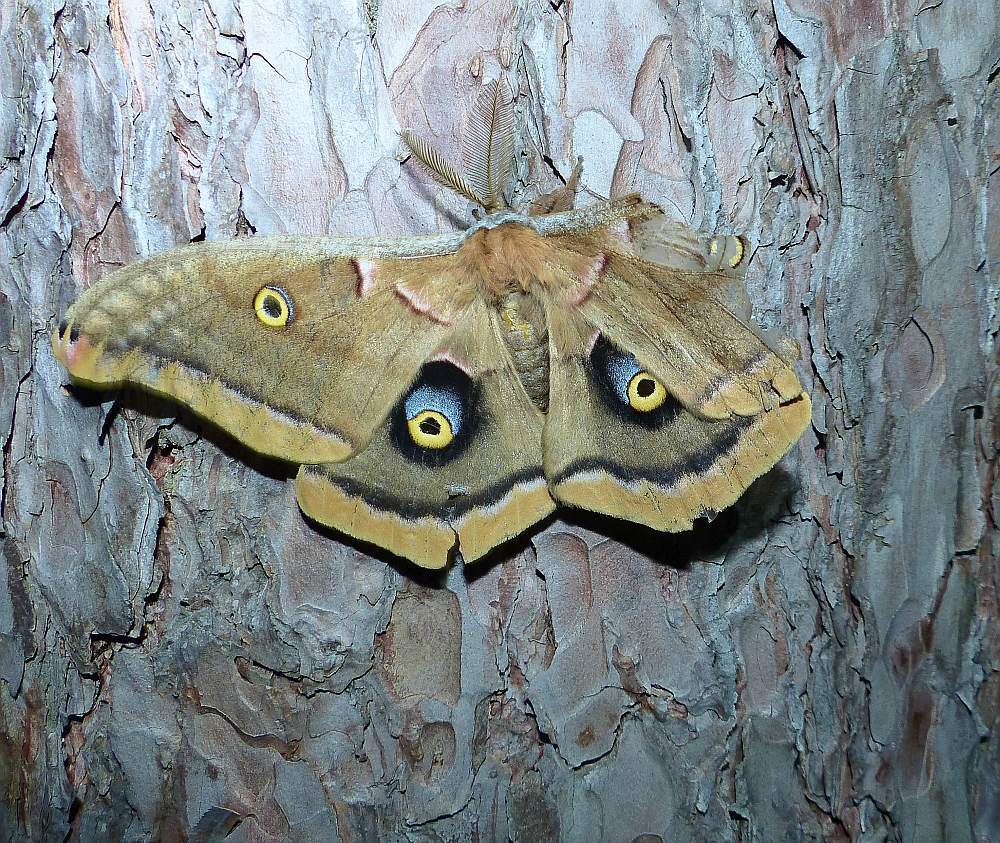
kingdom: Animalia
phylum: Arthropoda
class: Insecta
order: Lepidoptera
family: Saturniidae
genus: Antheraea
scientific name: Antheraea polyphemus
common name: Polyphemus moth
